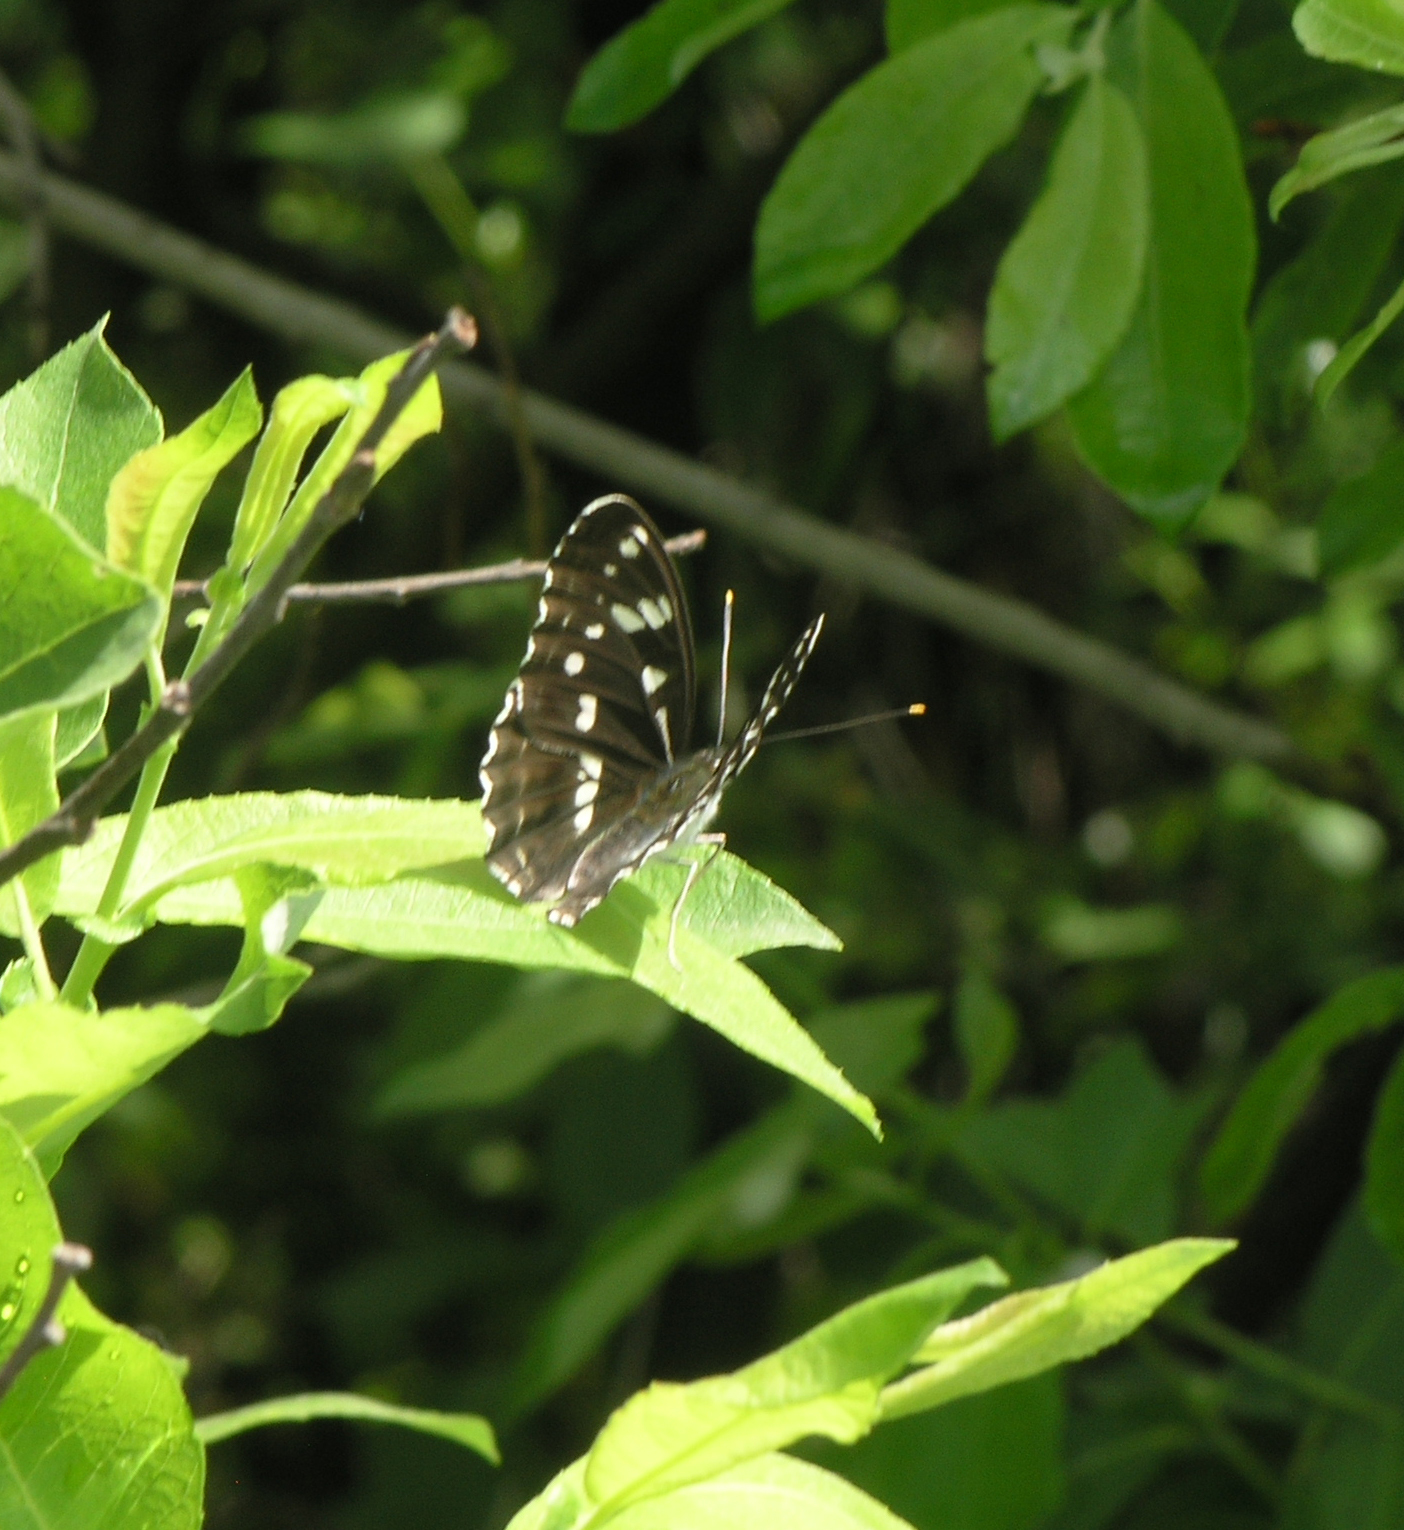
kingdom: Animalia
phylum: Arthropoda
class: Insecta
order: Lepidoptera
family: Nymphalidae
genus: Limenitis
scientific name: Limenitis helmanni
